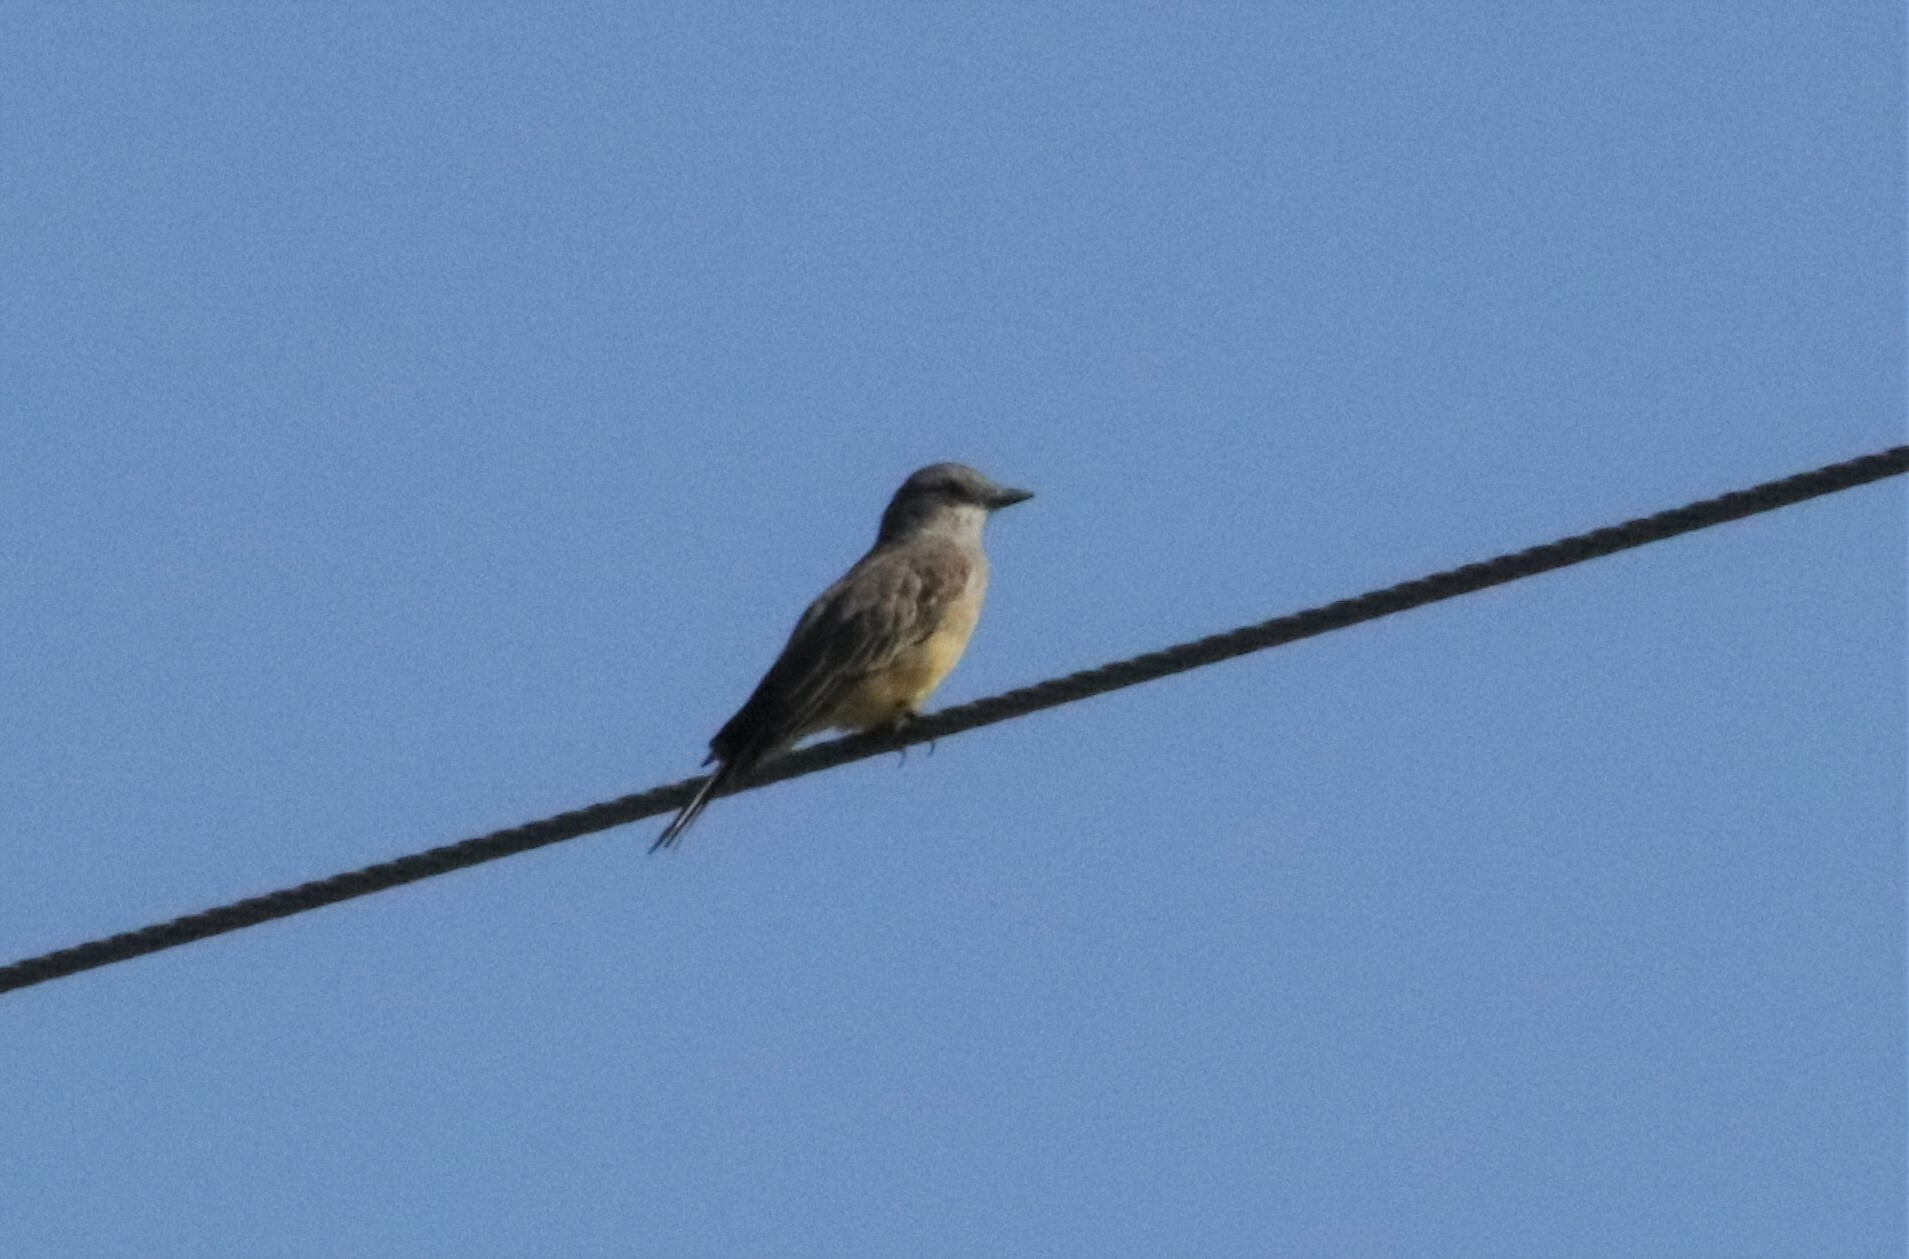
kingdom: Animalia
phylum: Chordata
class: Aves
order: Passeriformes
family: Tyrannidae
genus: Tyrannus
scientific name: Tyrannus vociferans
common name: Cassin's kingbird
